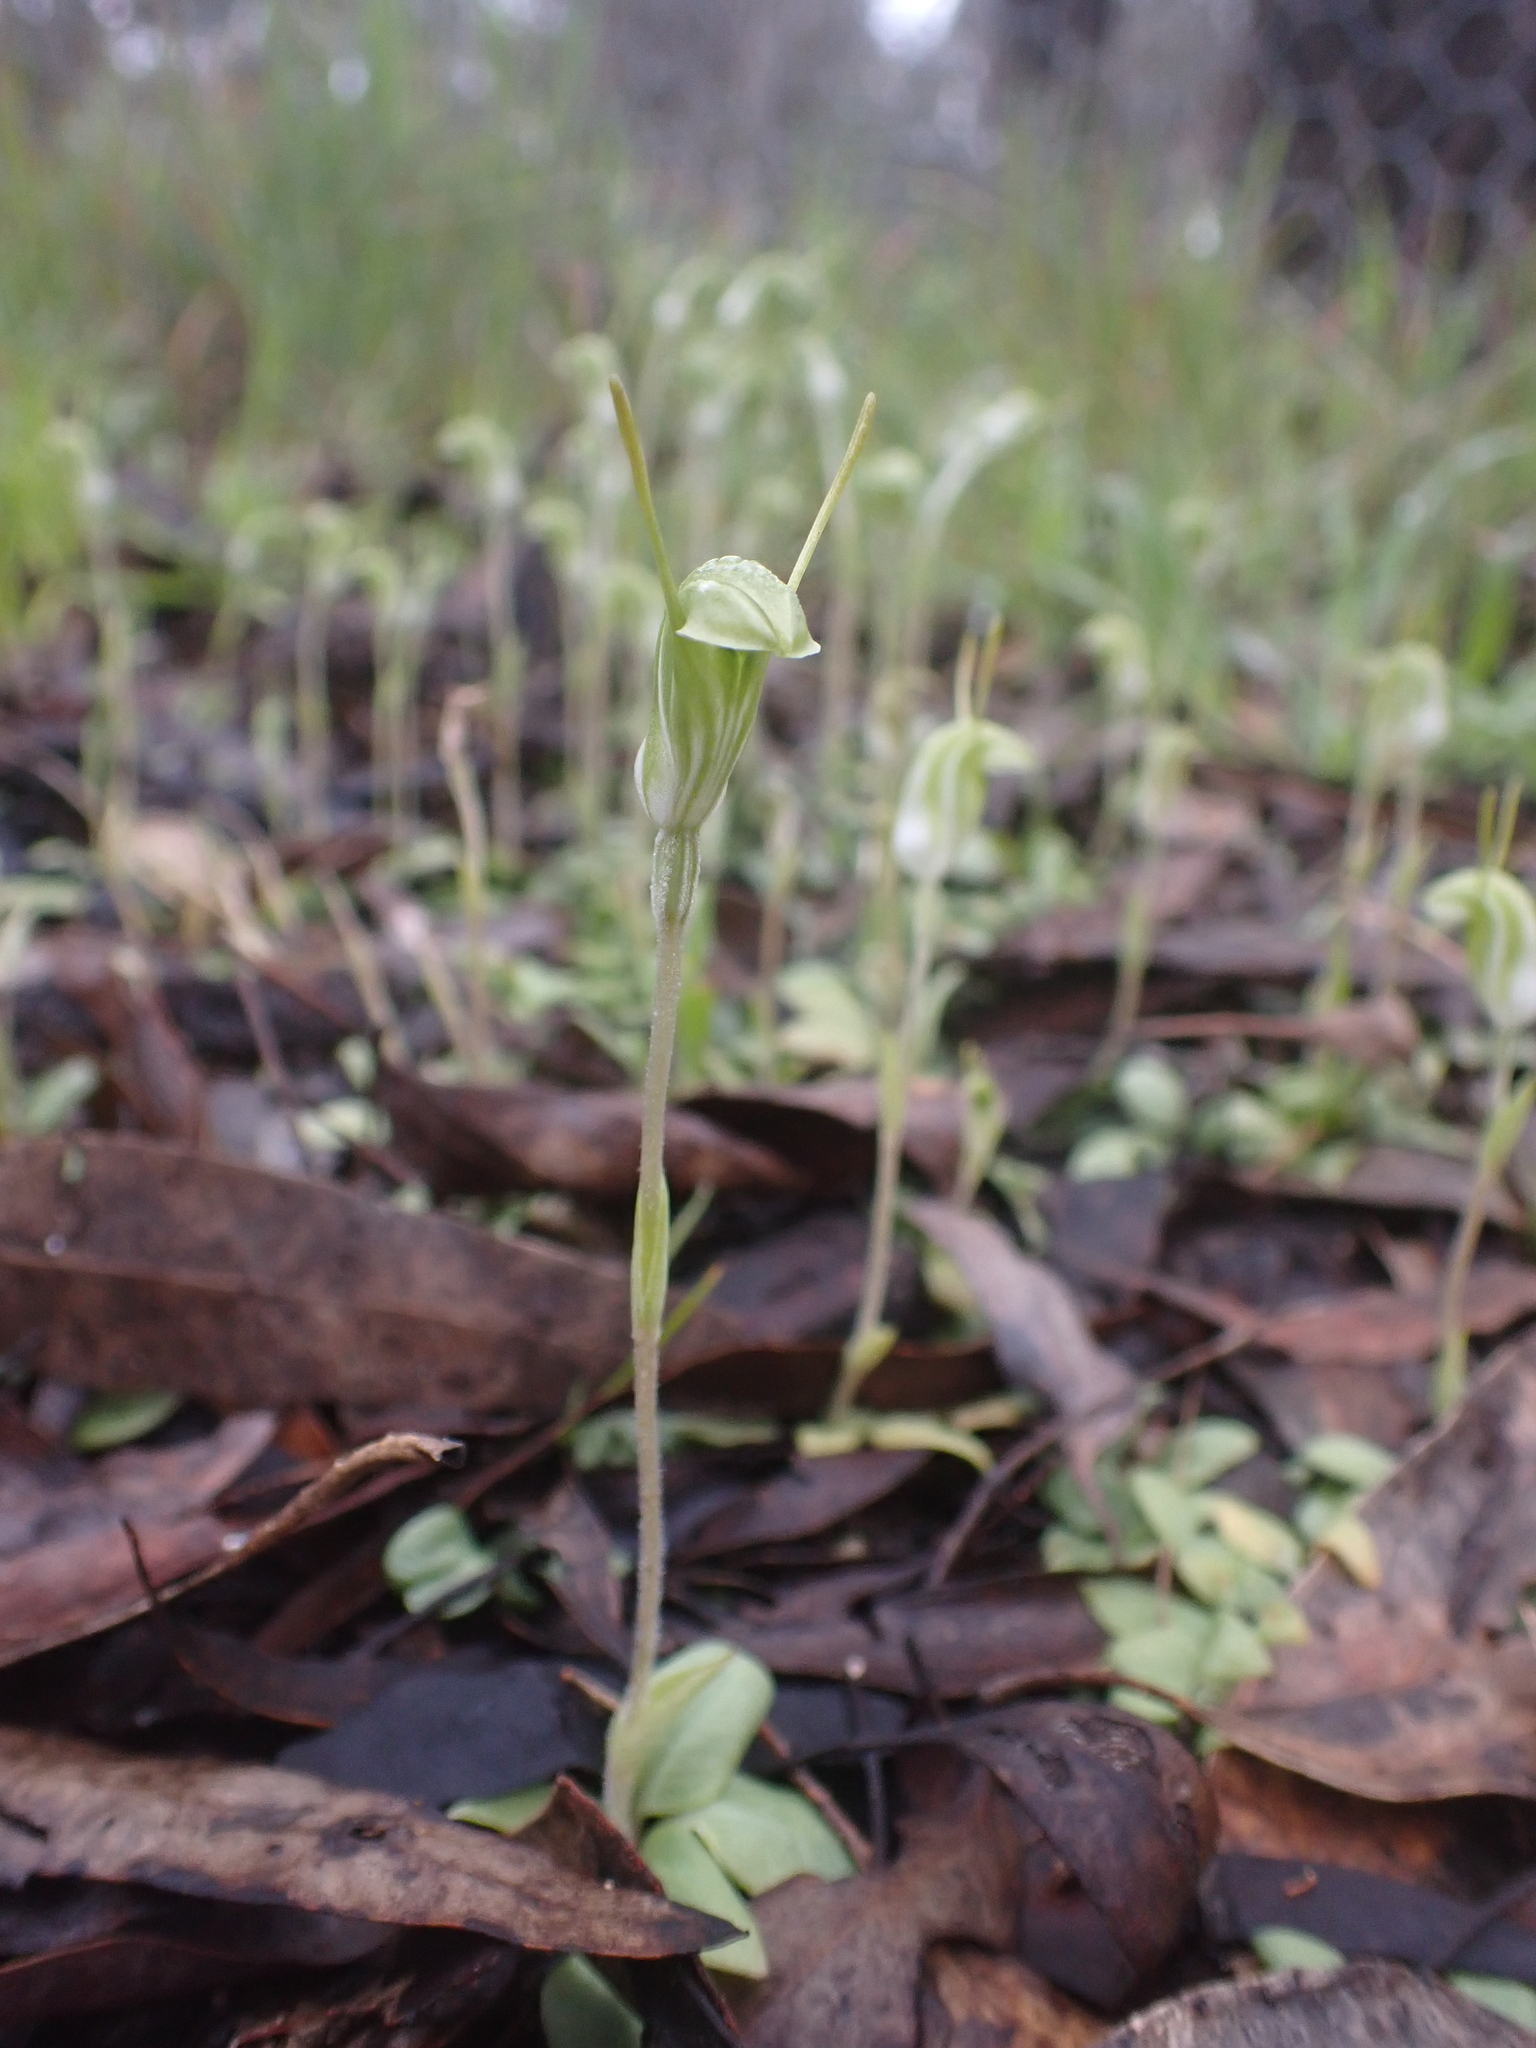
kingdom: Plantae
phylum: Tracheophyta
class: Liliopsida
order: Asparagales
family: Orchidaceae
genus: Pterostylis
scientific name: Pterostylis nana
